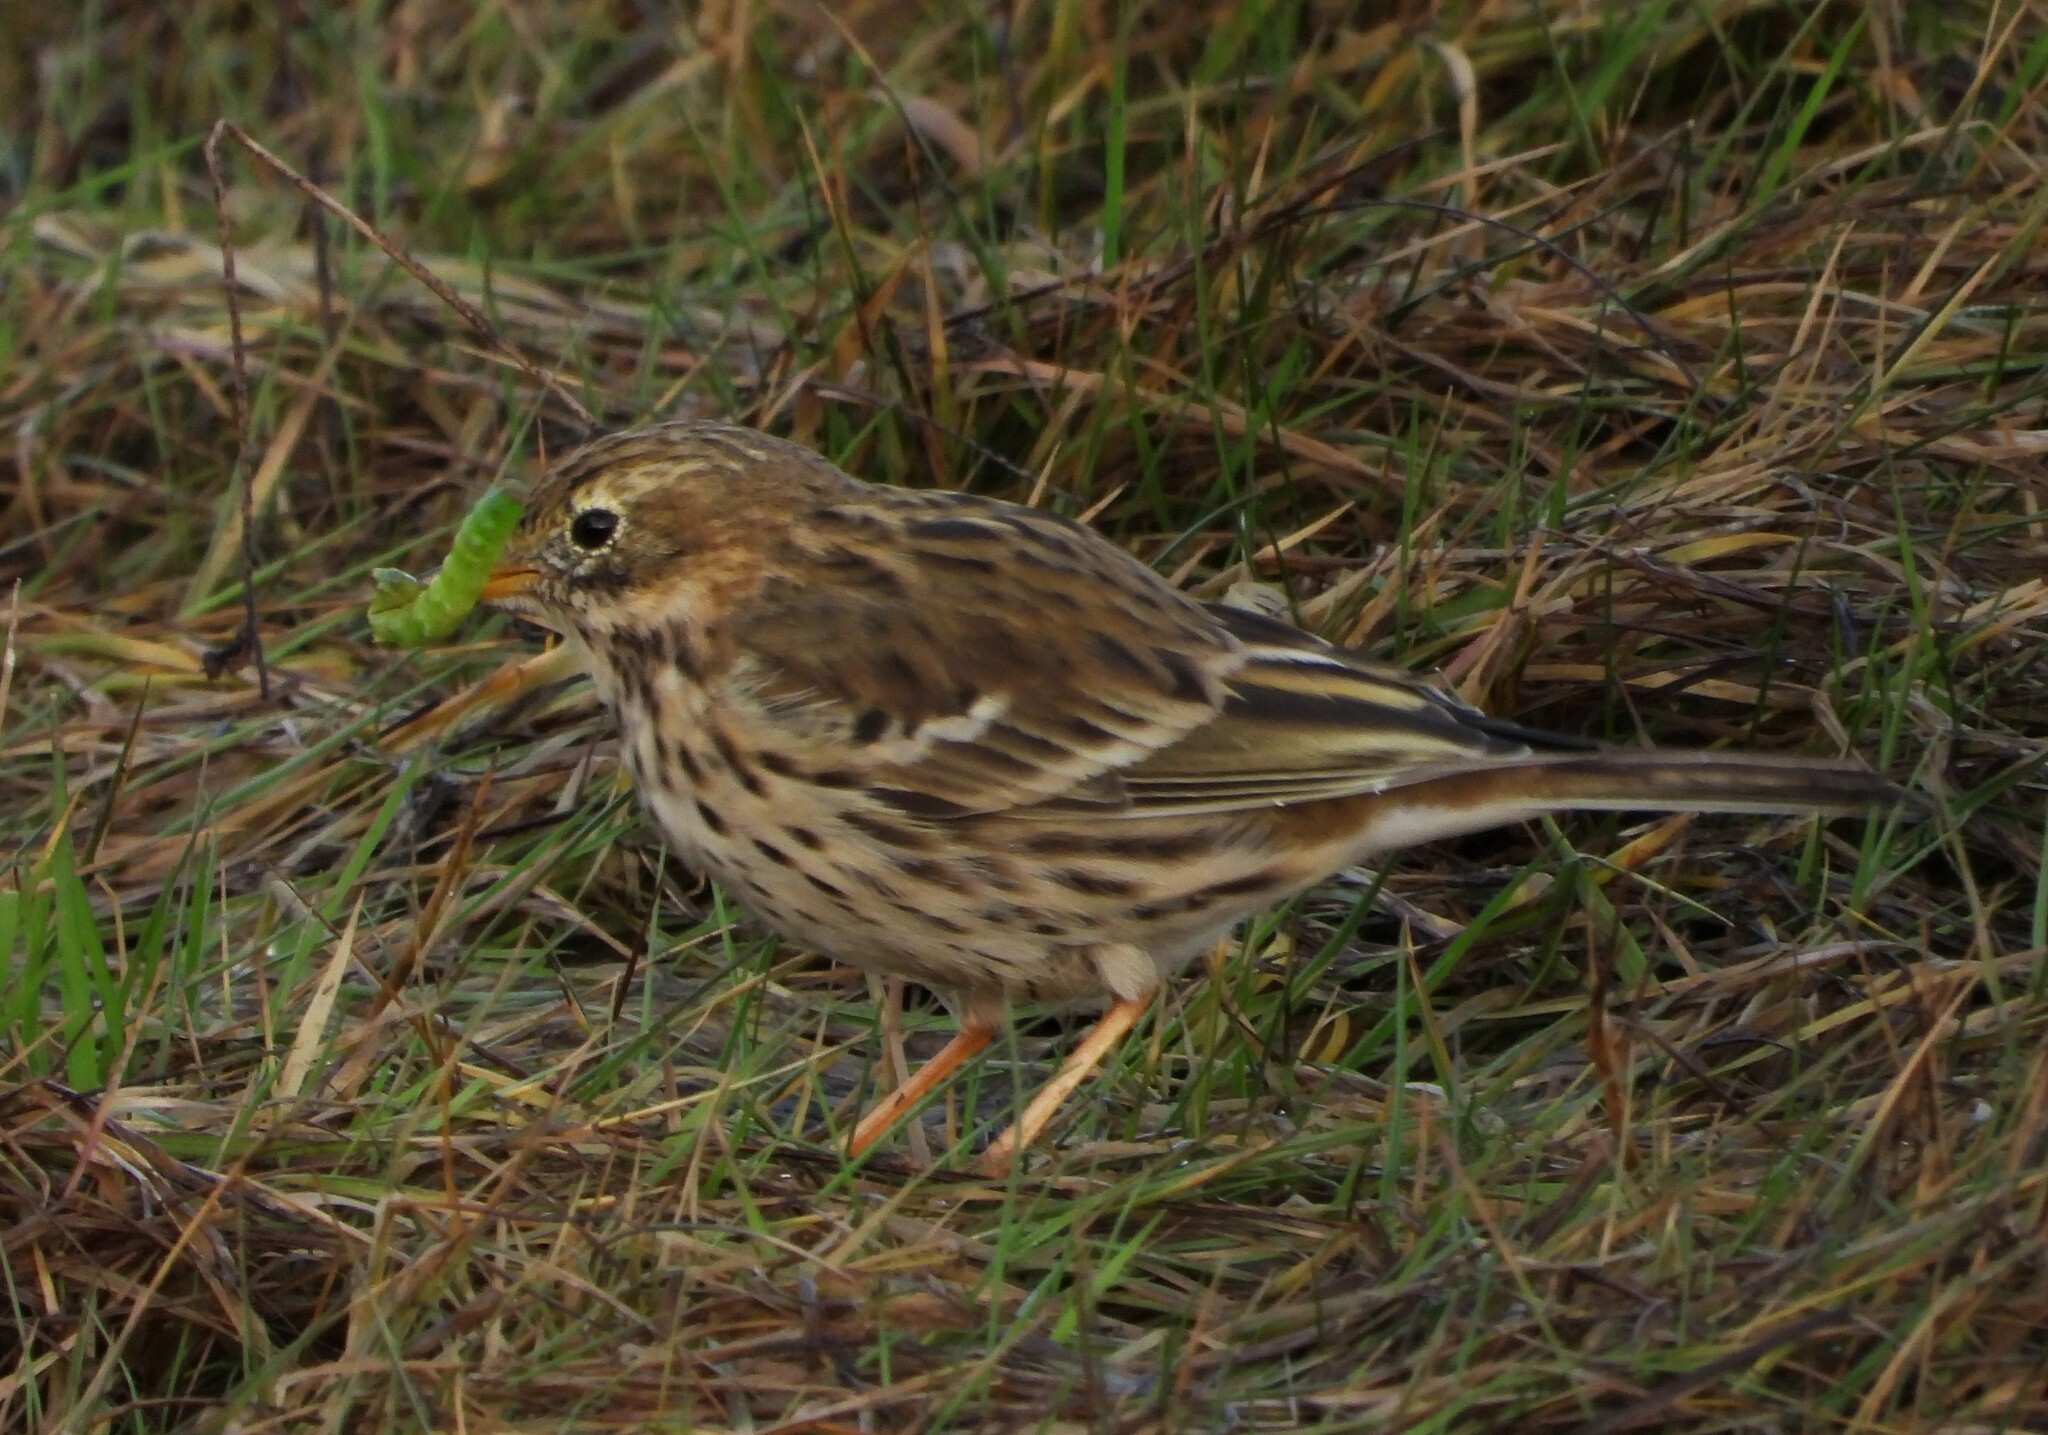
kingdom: Animalia
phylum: Chordata
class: Aves
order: Passeriformes
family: Motacillidae
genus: Anthus
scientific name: Anthus pratensis
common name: Meadow pipit
